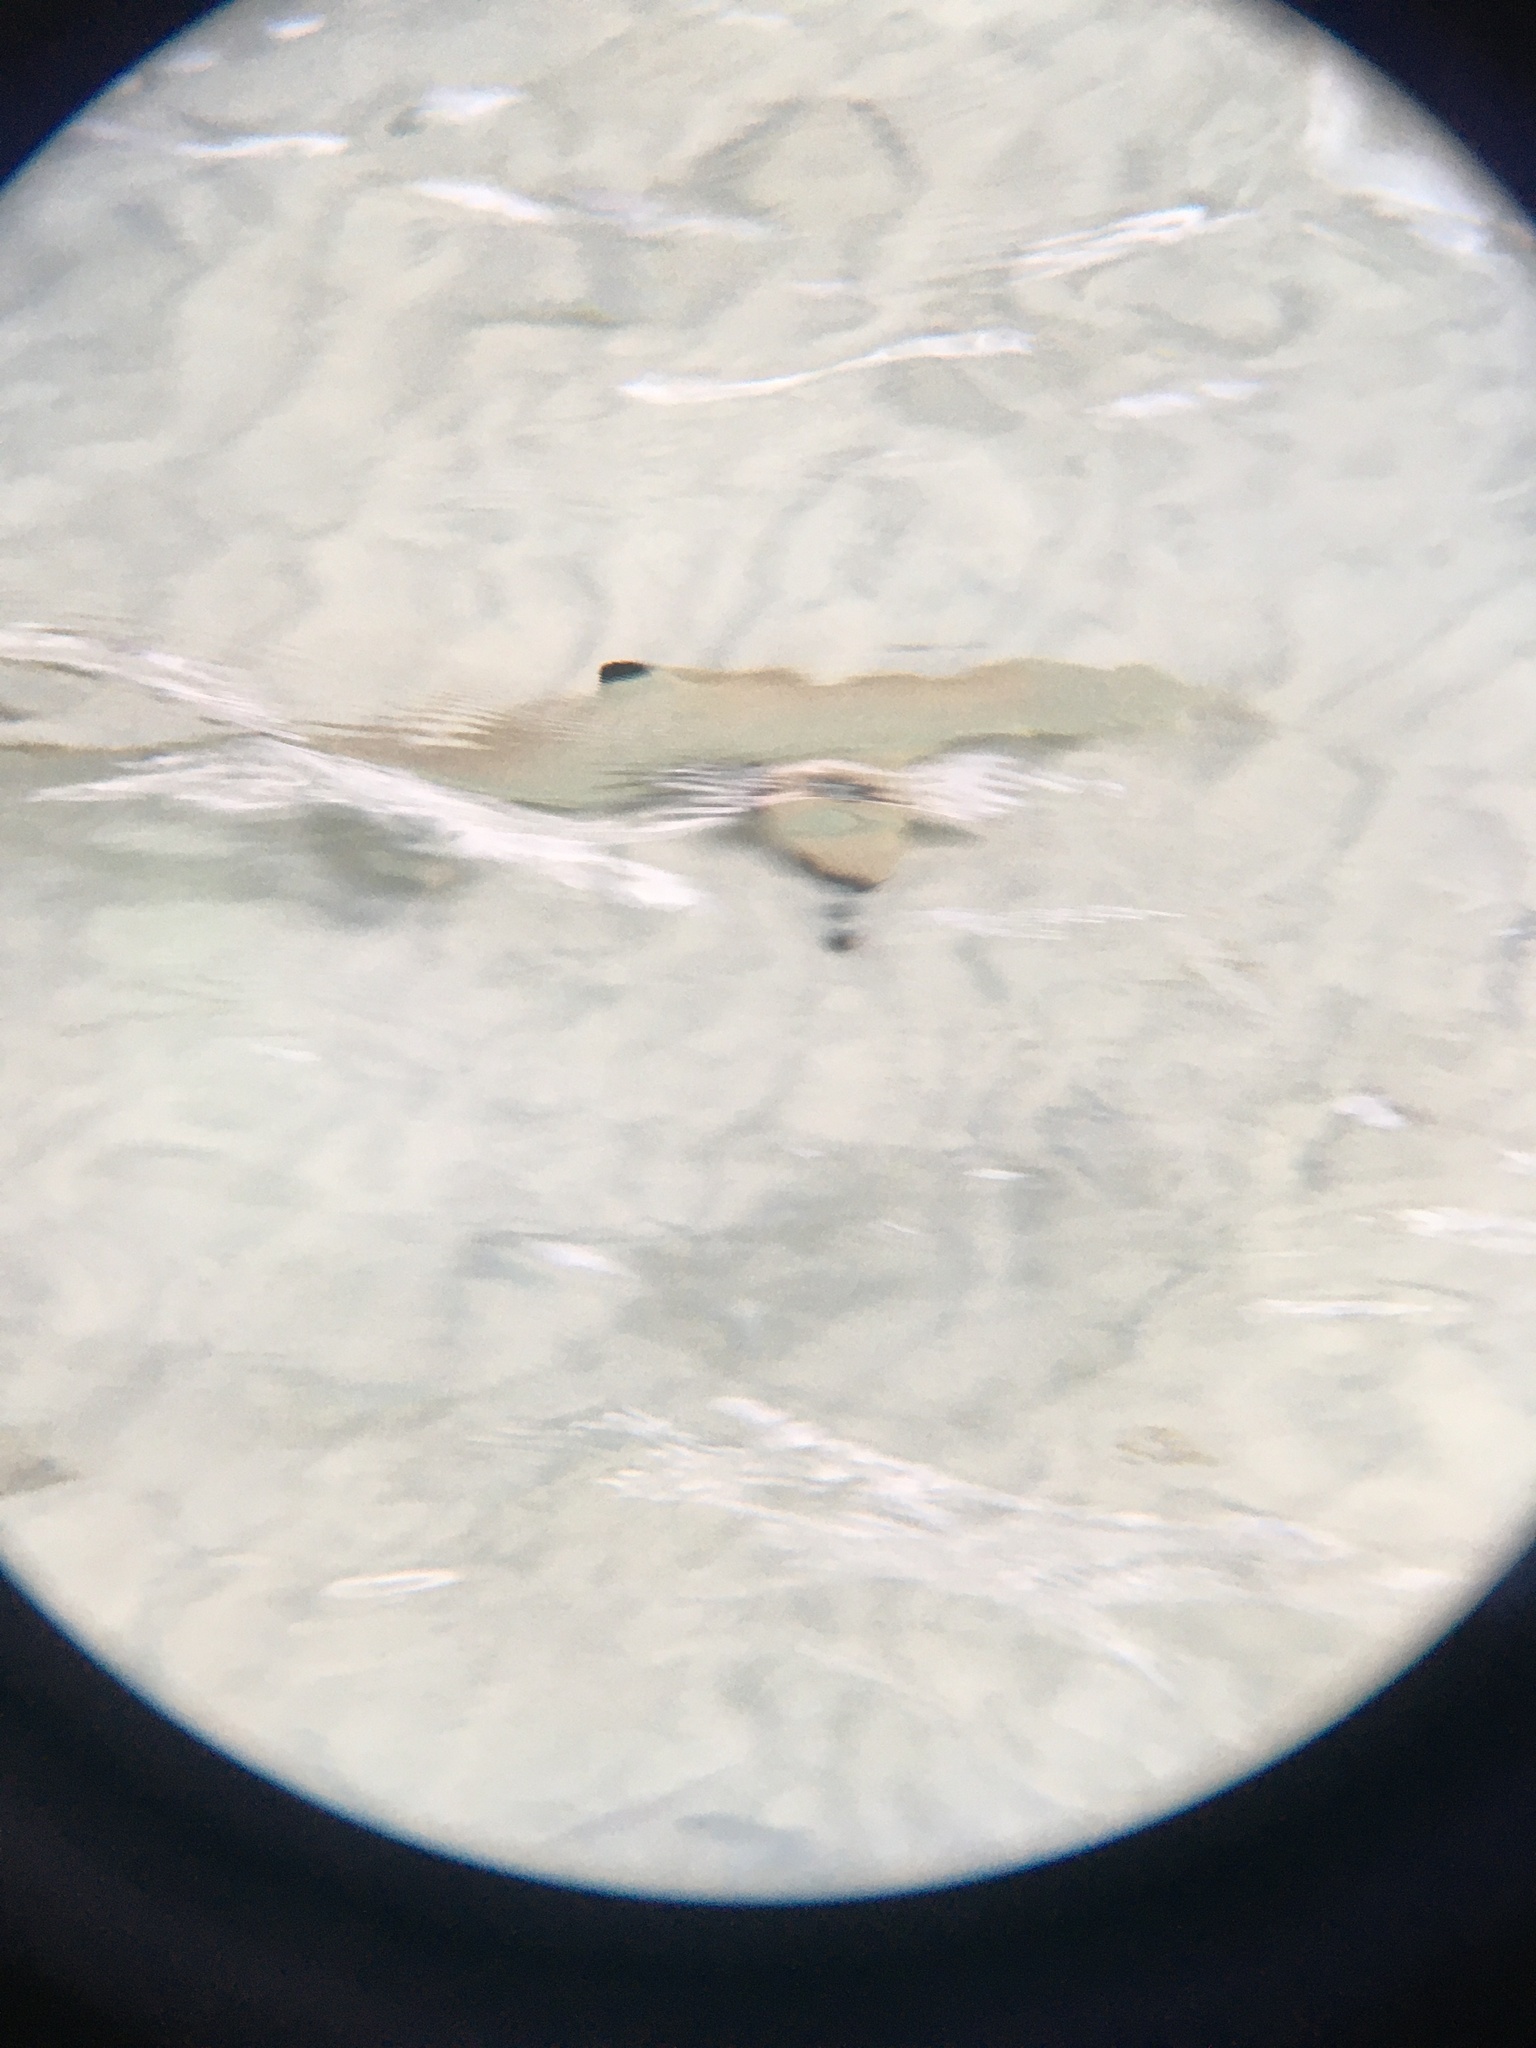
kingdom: Animalia
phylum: Chordata
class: Elasmobranchii
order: Carcharhiniformes
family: Carcharhinidae
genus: Carcharhinus
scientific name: Carcharhinus melanopterus
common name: Blacktip reef shark
